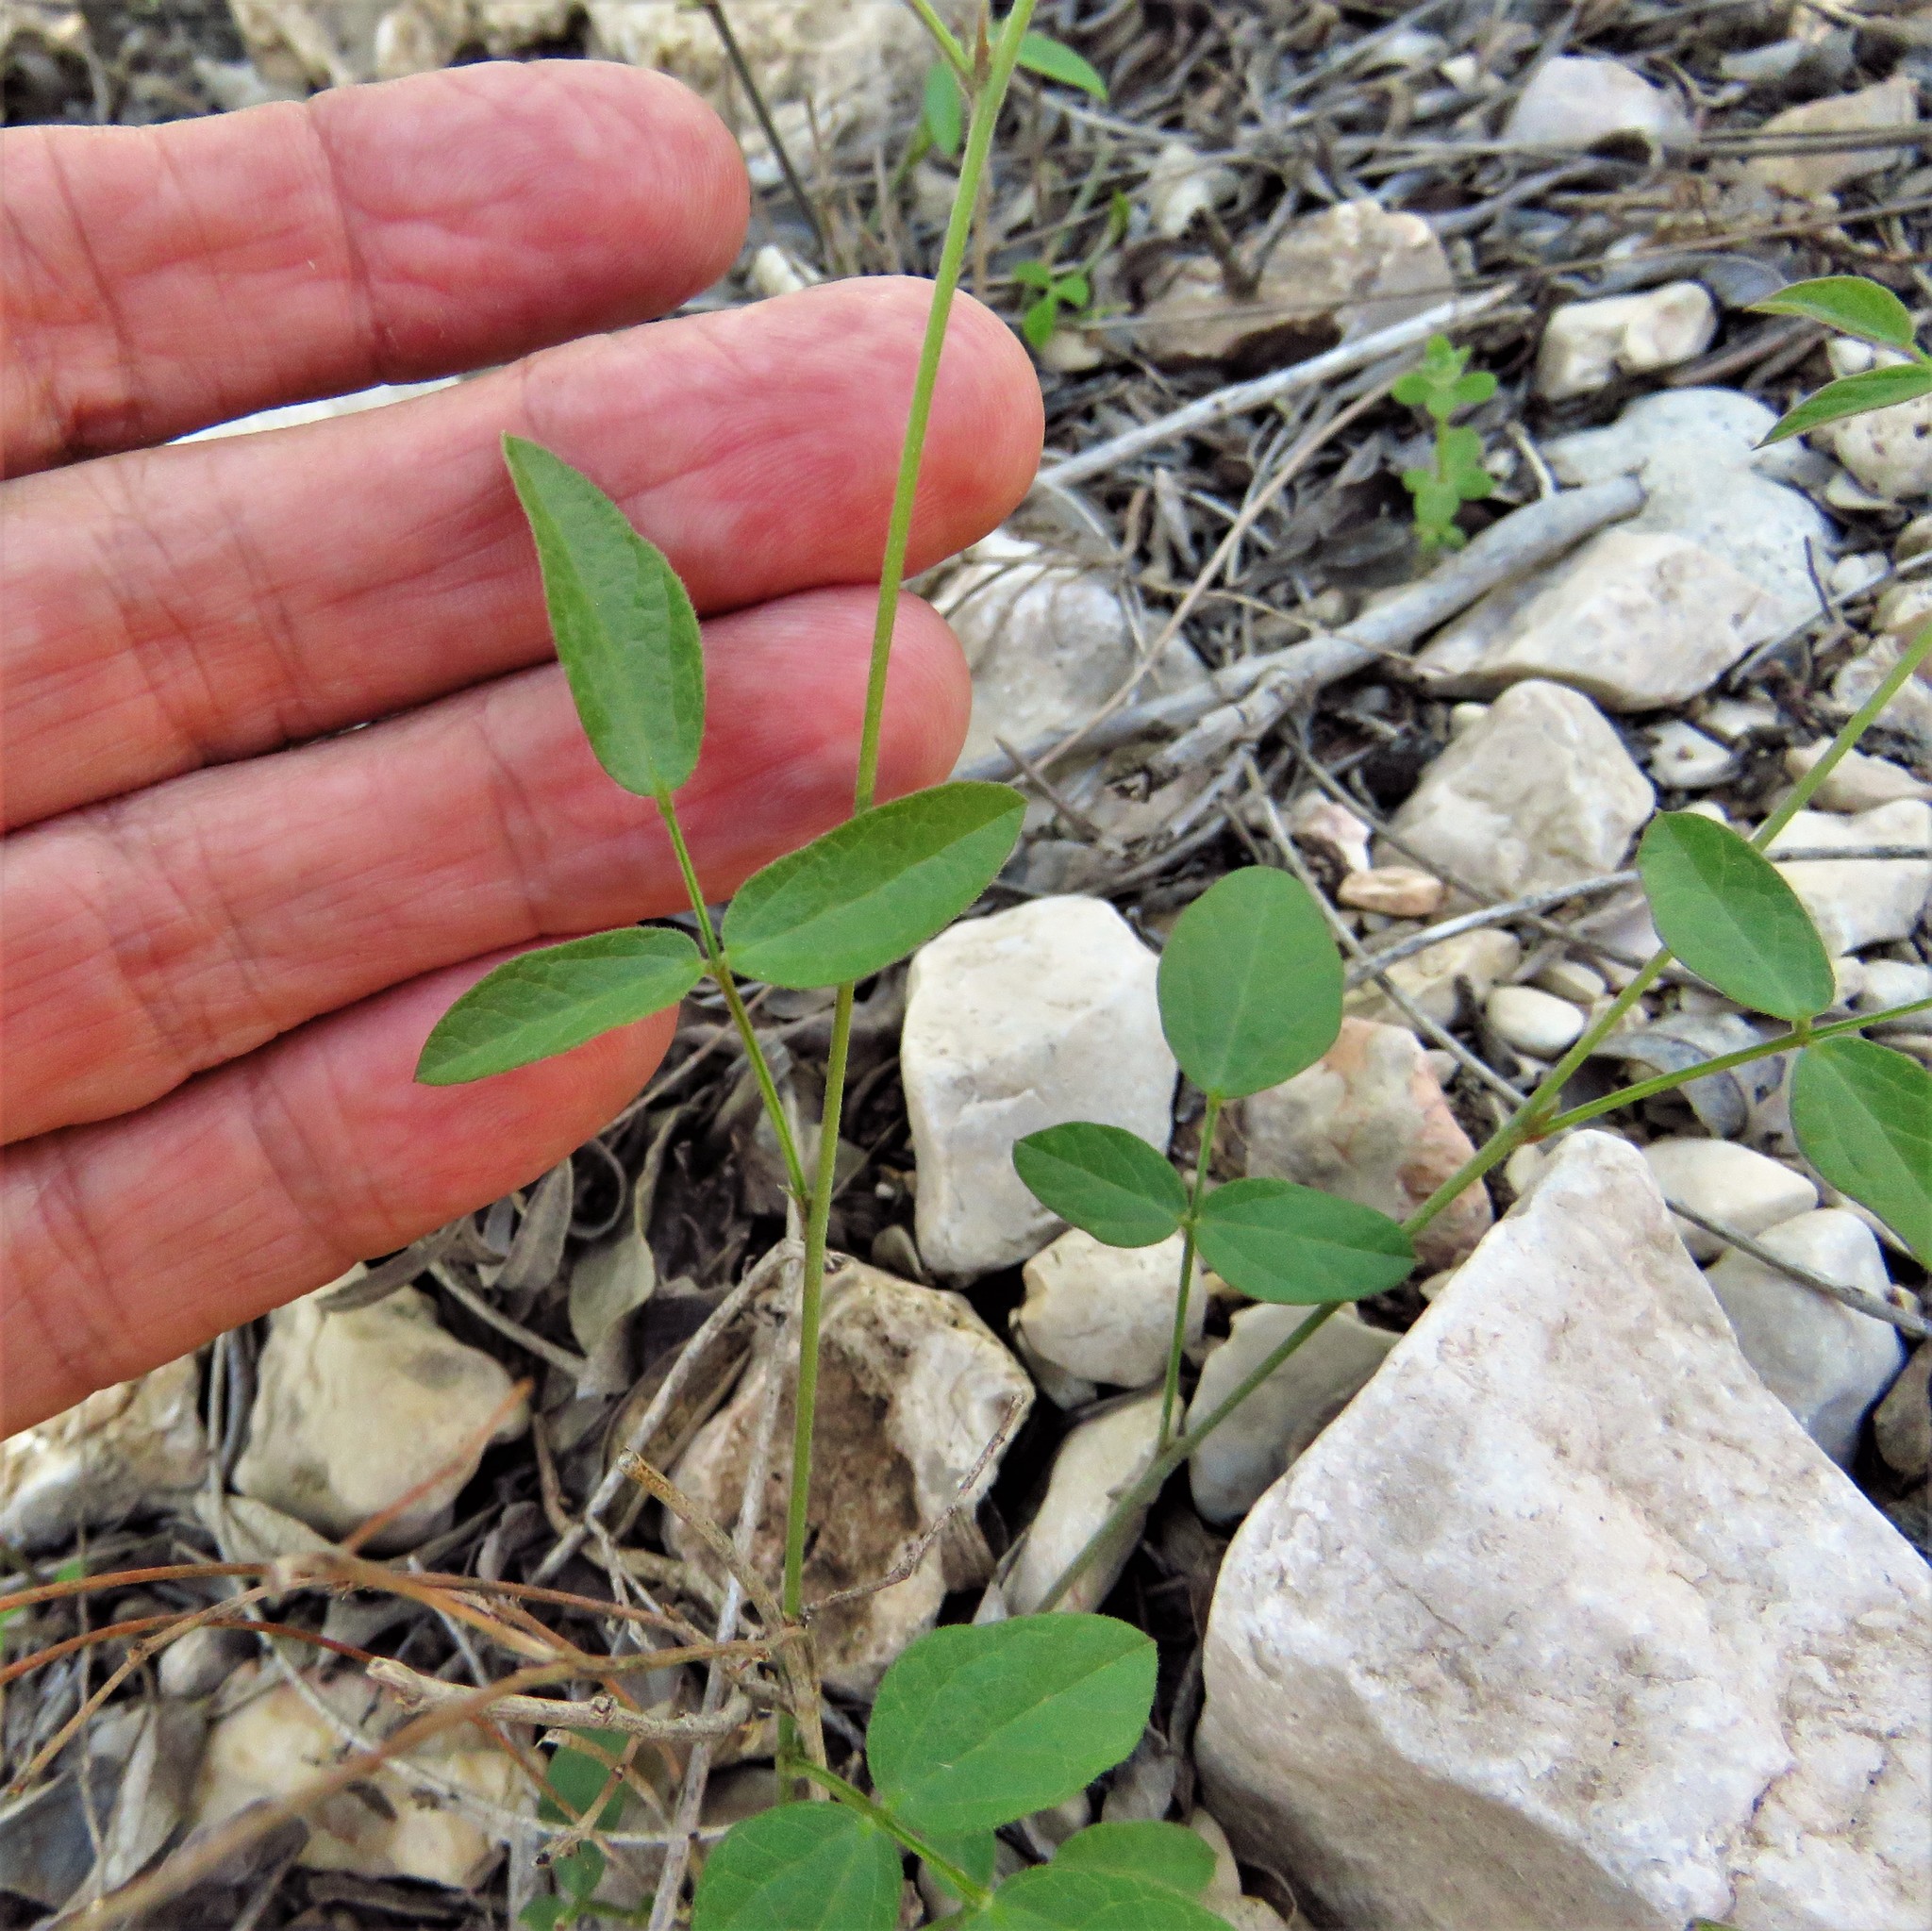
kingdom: Plantae
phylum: Tracheophyta
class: Magnoliopsida
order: Fabales
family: Fabaceae
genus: Rhynchosia
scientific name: Rhynchosia senna
